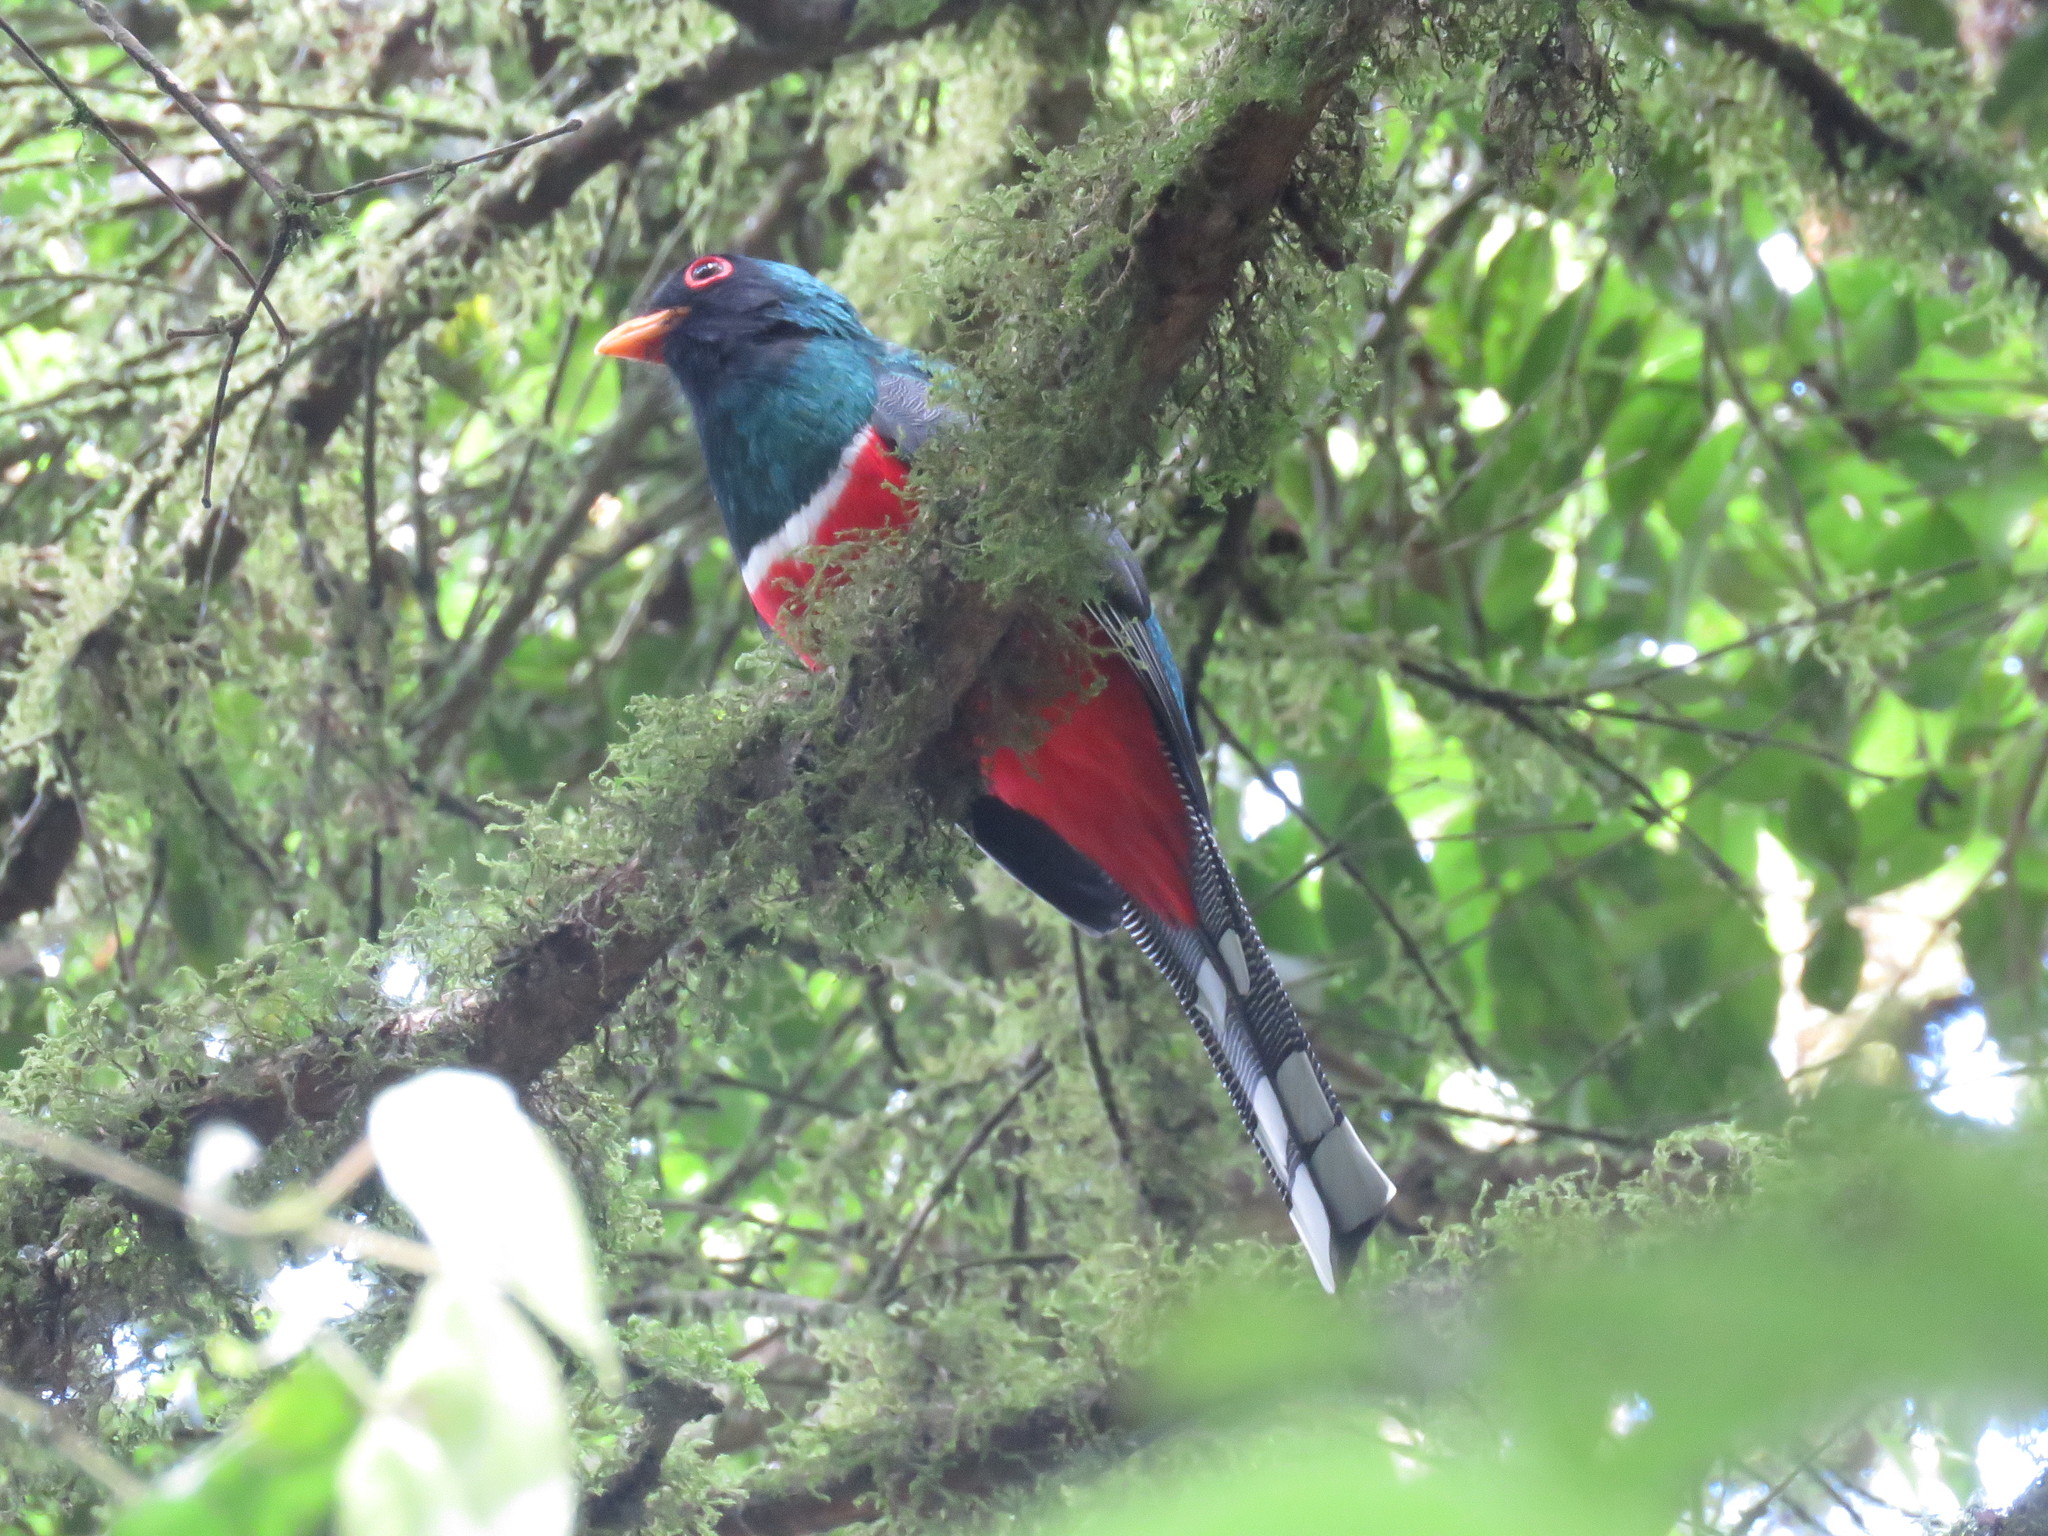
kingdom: Animalia
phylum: Chordata
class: Aves
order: Trogoniformes
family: Trogonidae
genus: Trogon
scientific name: Trogon personatus
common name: Masked trogon
